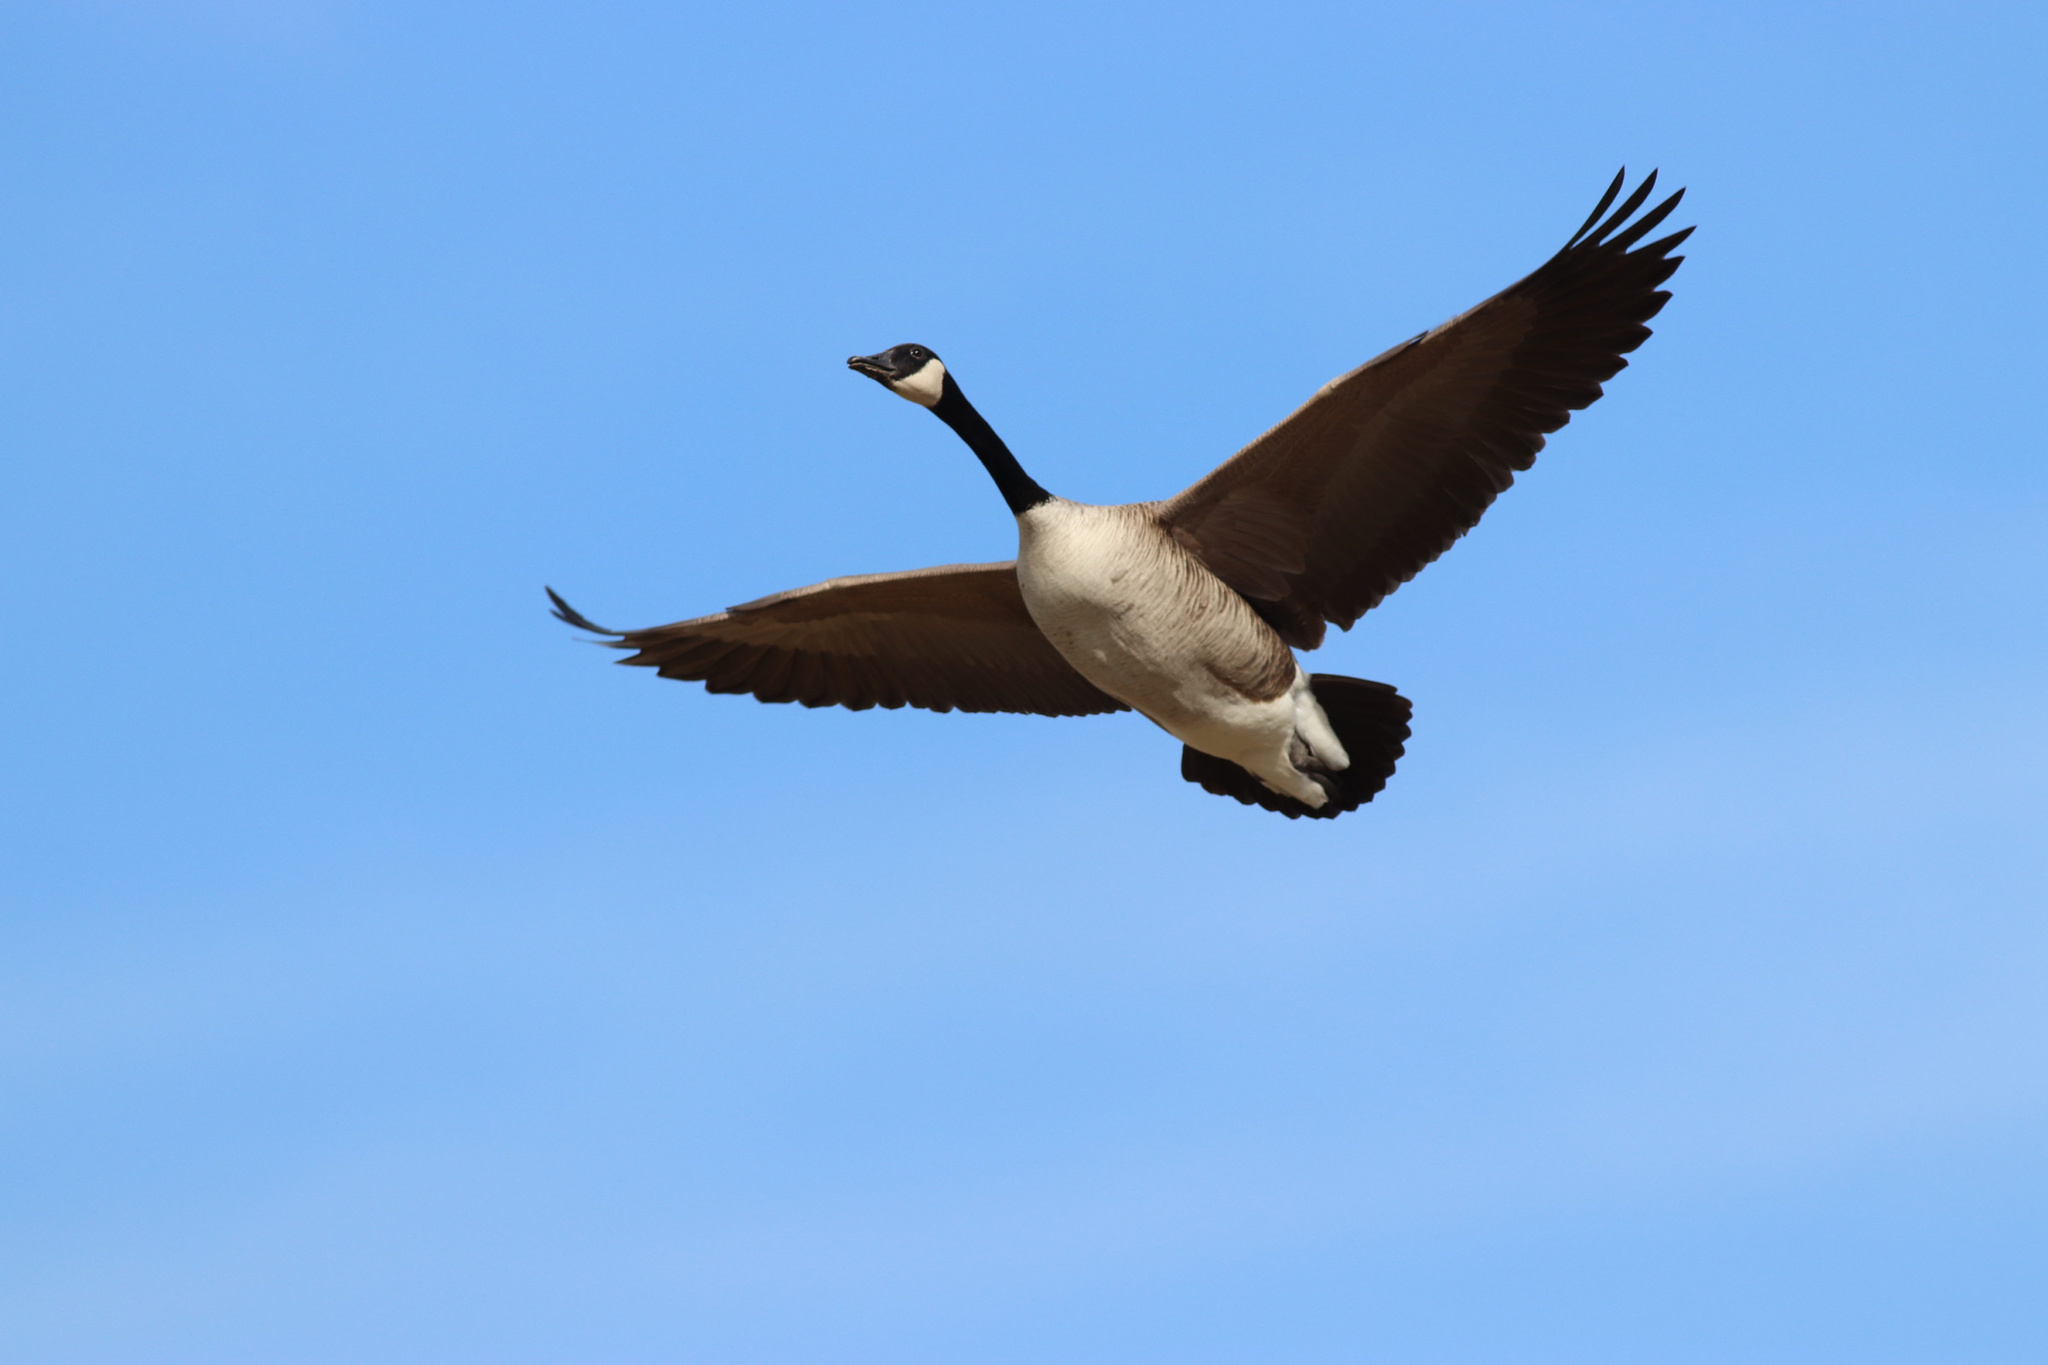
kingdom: Animalia
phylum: Chordata
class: Aves
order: Anseriformes
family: Anatidae
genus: Branta
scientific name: Branta canadensis
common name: Canada goose
